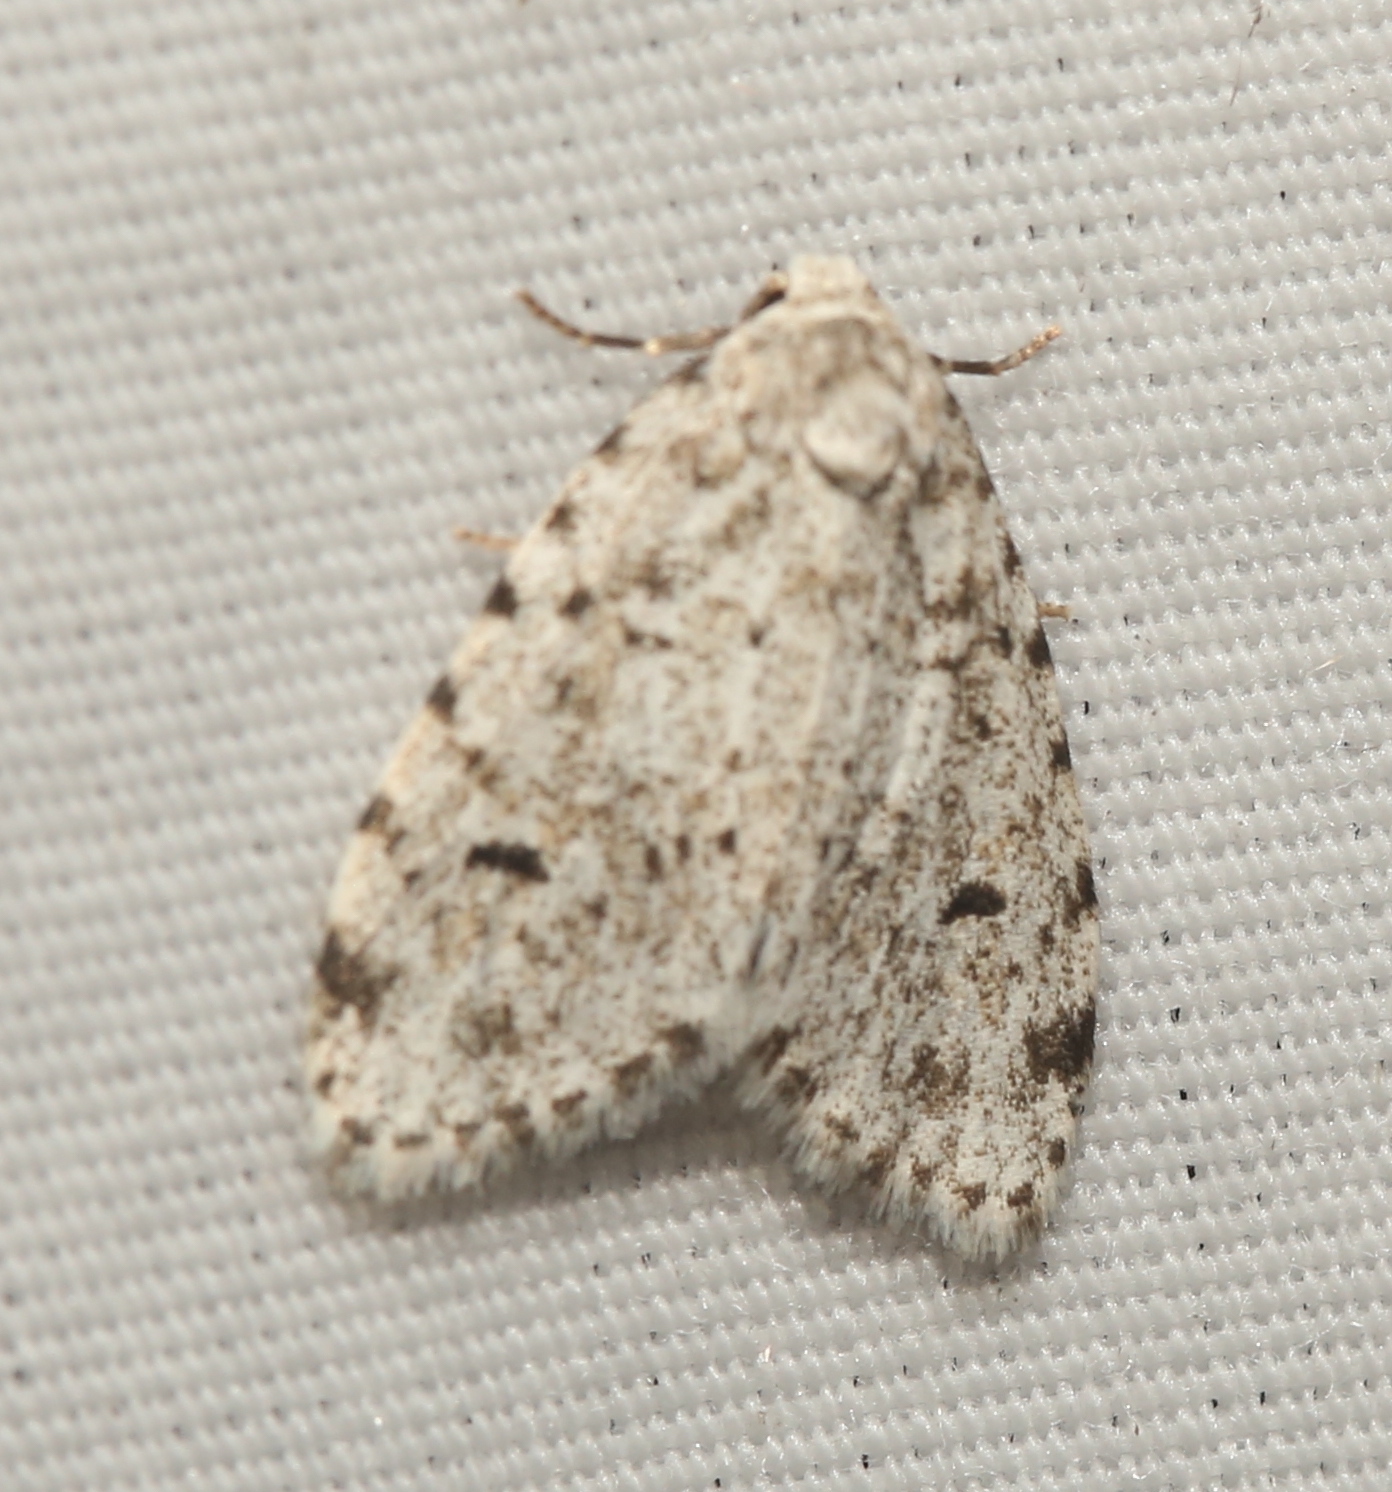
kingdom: Animalia
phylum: Arthropoda
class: Insecta
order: Lepidoptera
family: Erebidae
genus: Clemensia
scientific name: Clemensia albata
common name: Little white lichen moth
